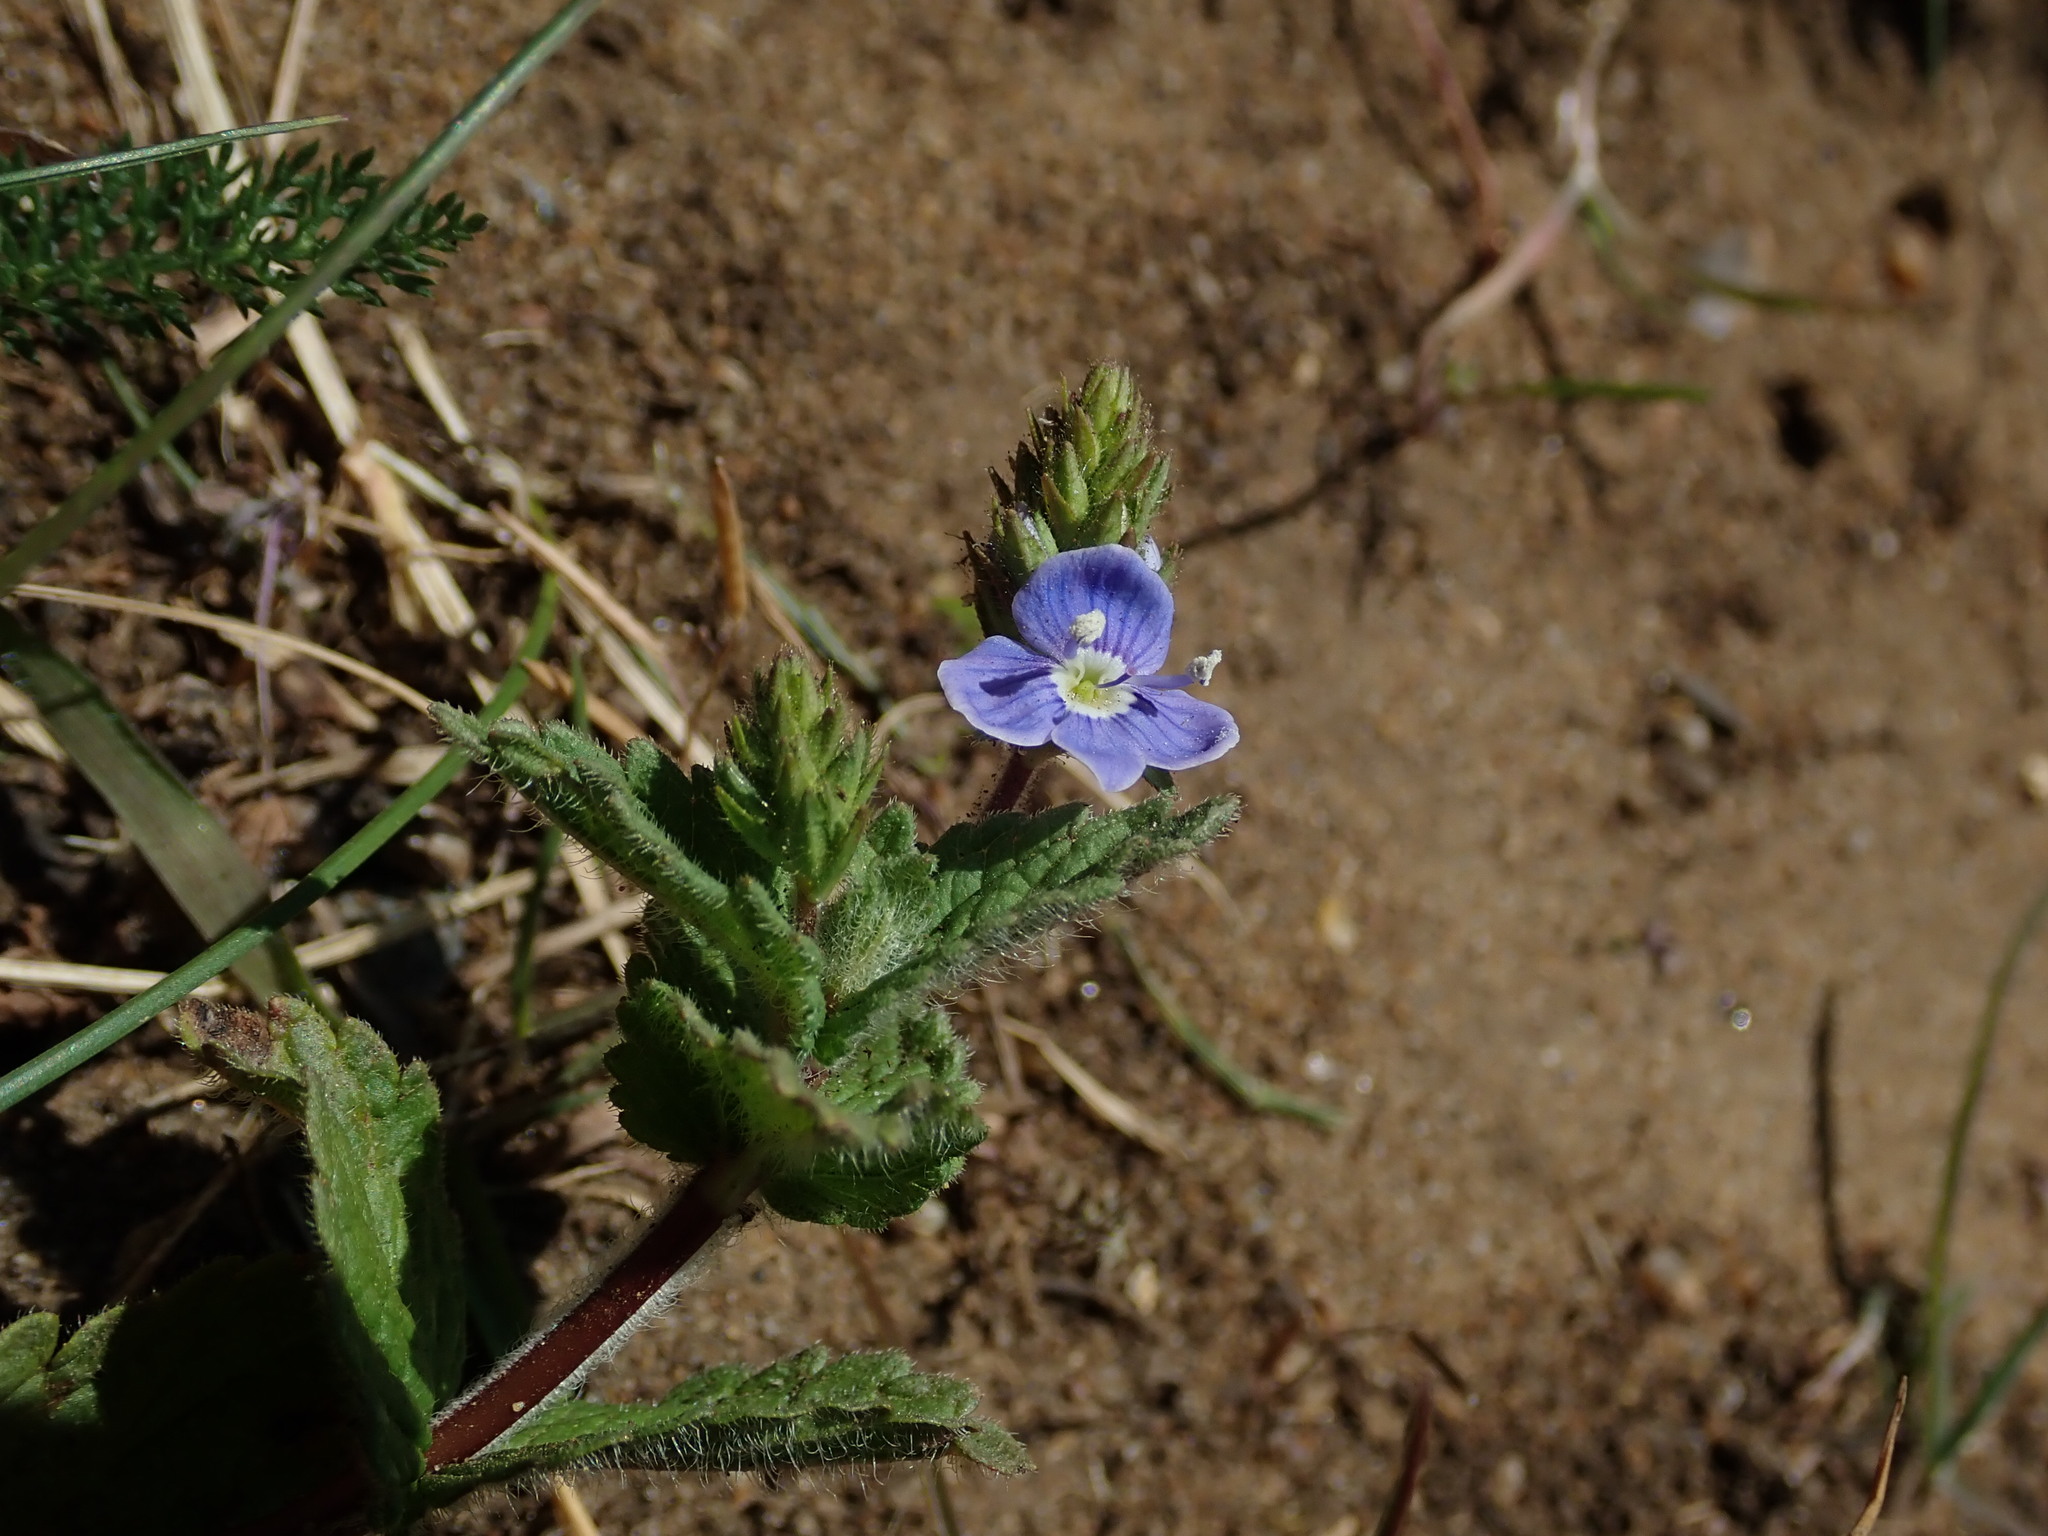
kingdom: Plantae
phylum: Tracheophyta
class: Magnoliopsida
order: Lamiales
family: Plantaginaceae
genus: Veronica
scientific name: Veronica chamaedrys
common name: Germander speedwell
